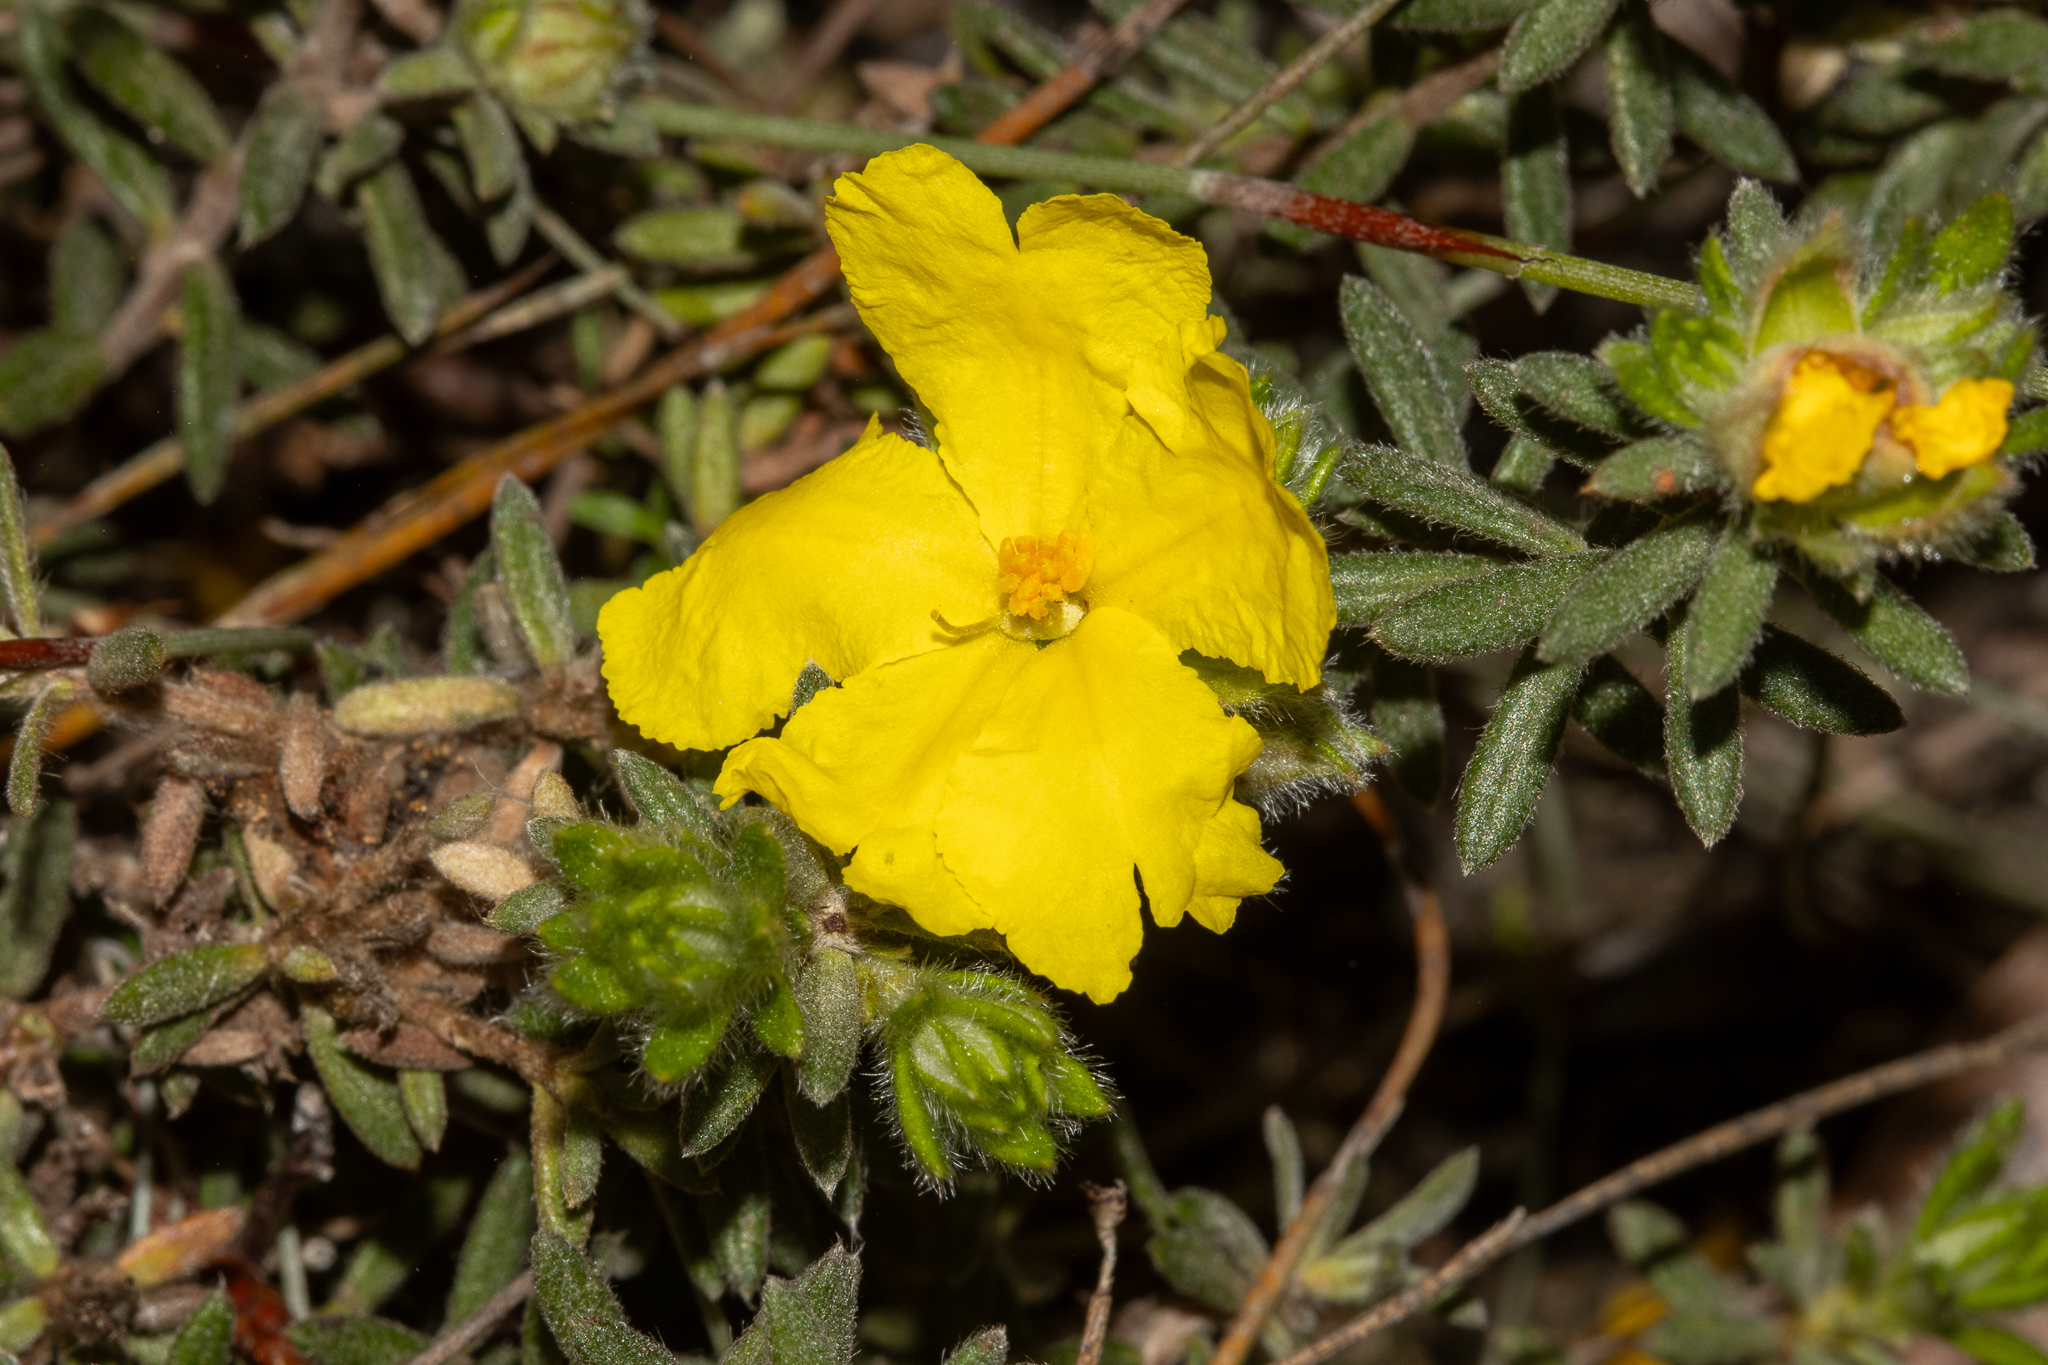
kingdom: Plantae
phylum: Tracheophyta
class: Magnoliopsida
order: Dilleniales
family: Dilleniaceae
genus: Hibbertia
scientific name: Hibbertia crinita
